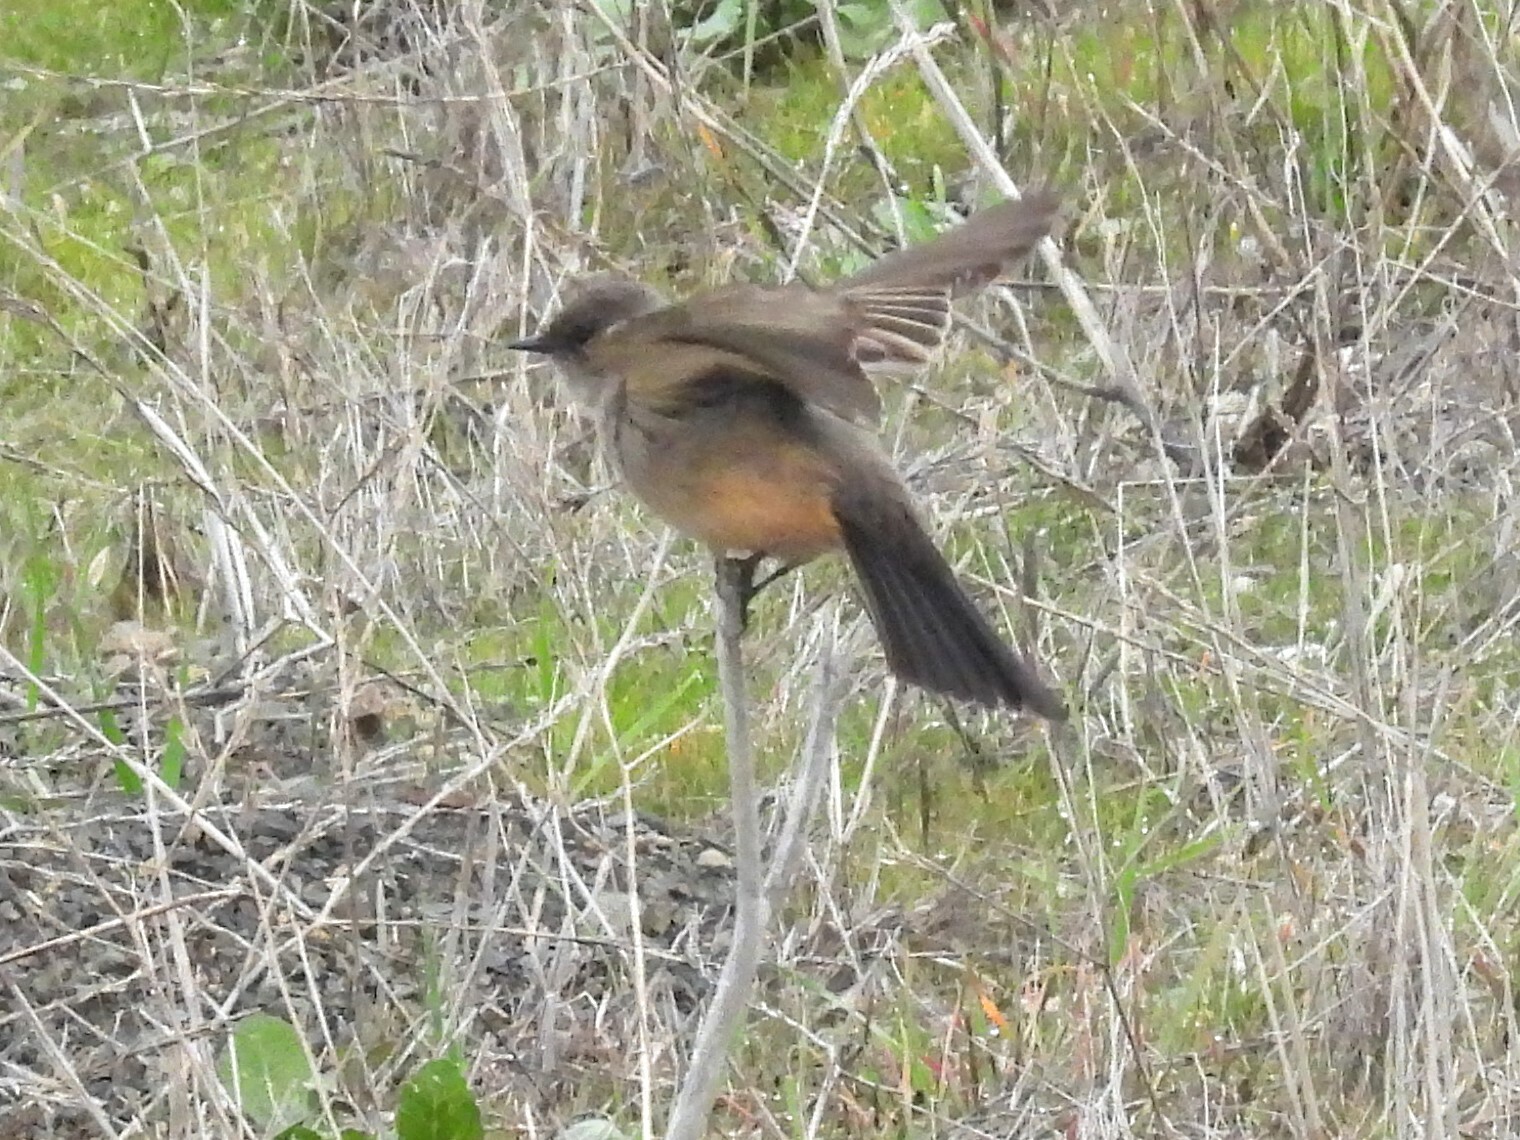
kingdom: Animalia
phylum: Chordata
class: Aves
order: Passeriformes
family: Tyrannidae
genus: Sayornis
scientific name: Sayornis saya
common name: Say's phoebe
